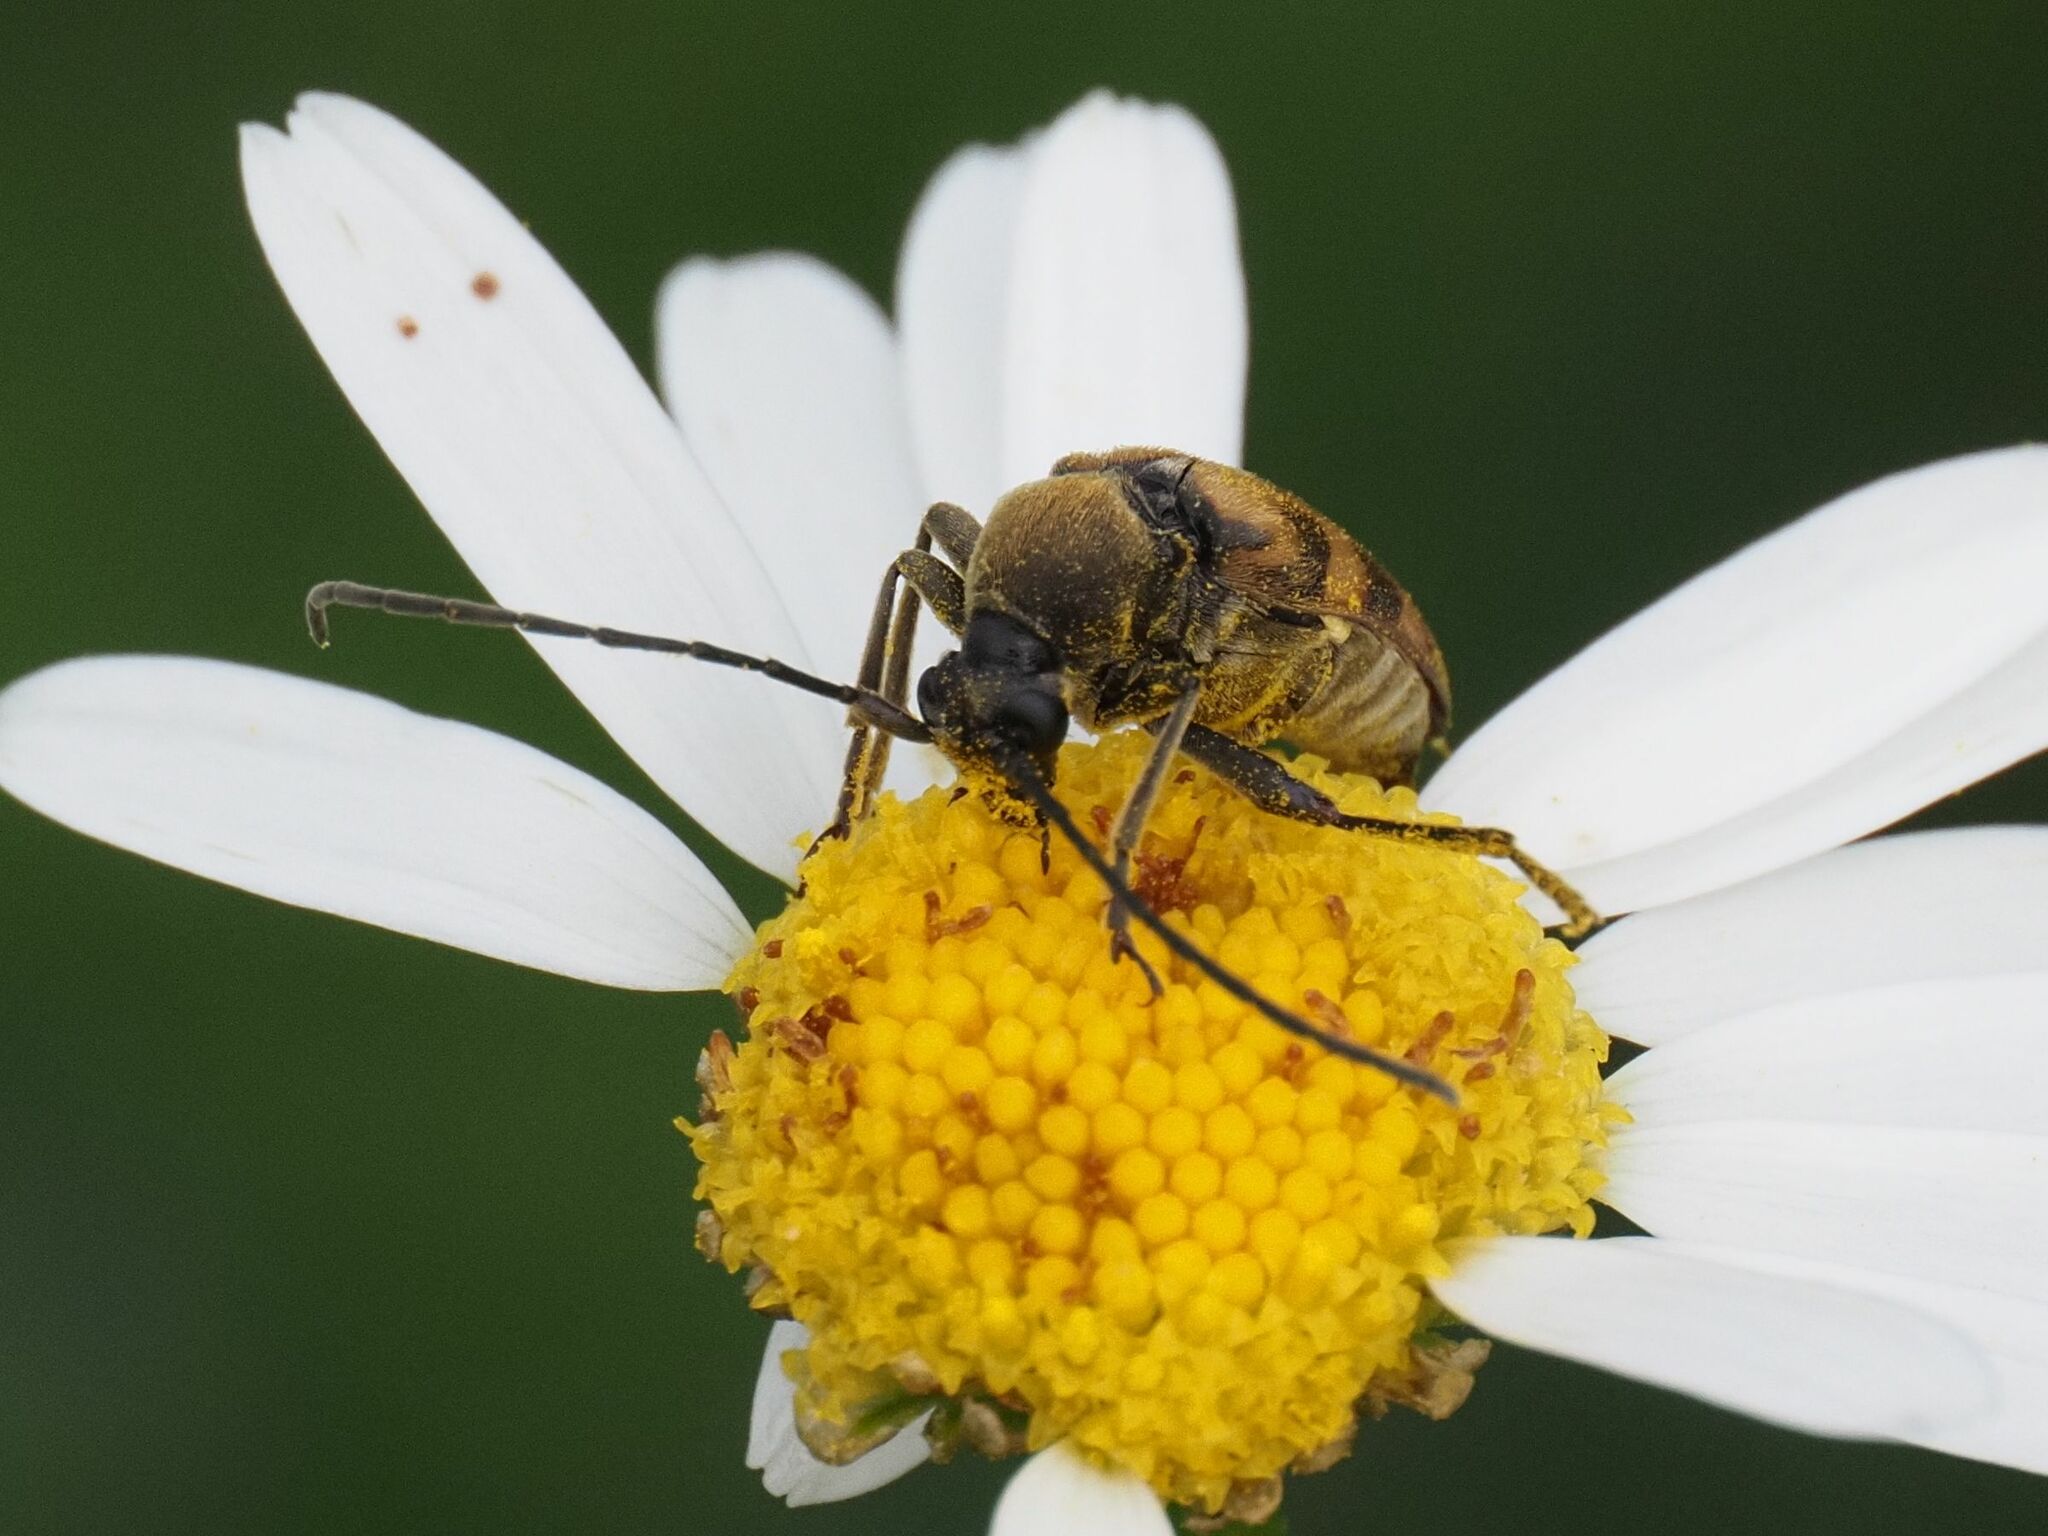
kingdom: Animalia
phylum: Arthropoda
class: Insecta
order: Coleoptera
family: Cerambycidae
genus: Pachytodes
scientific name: Pachytodes
